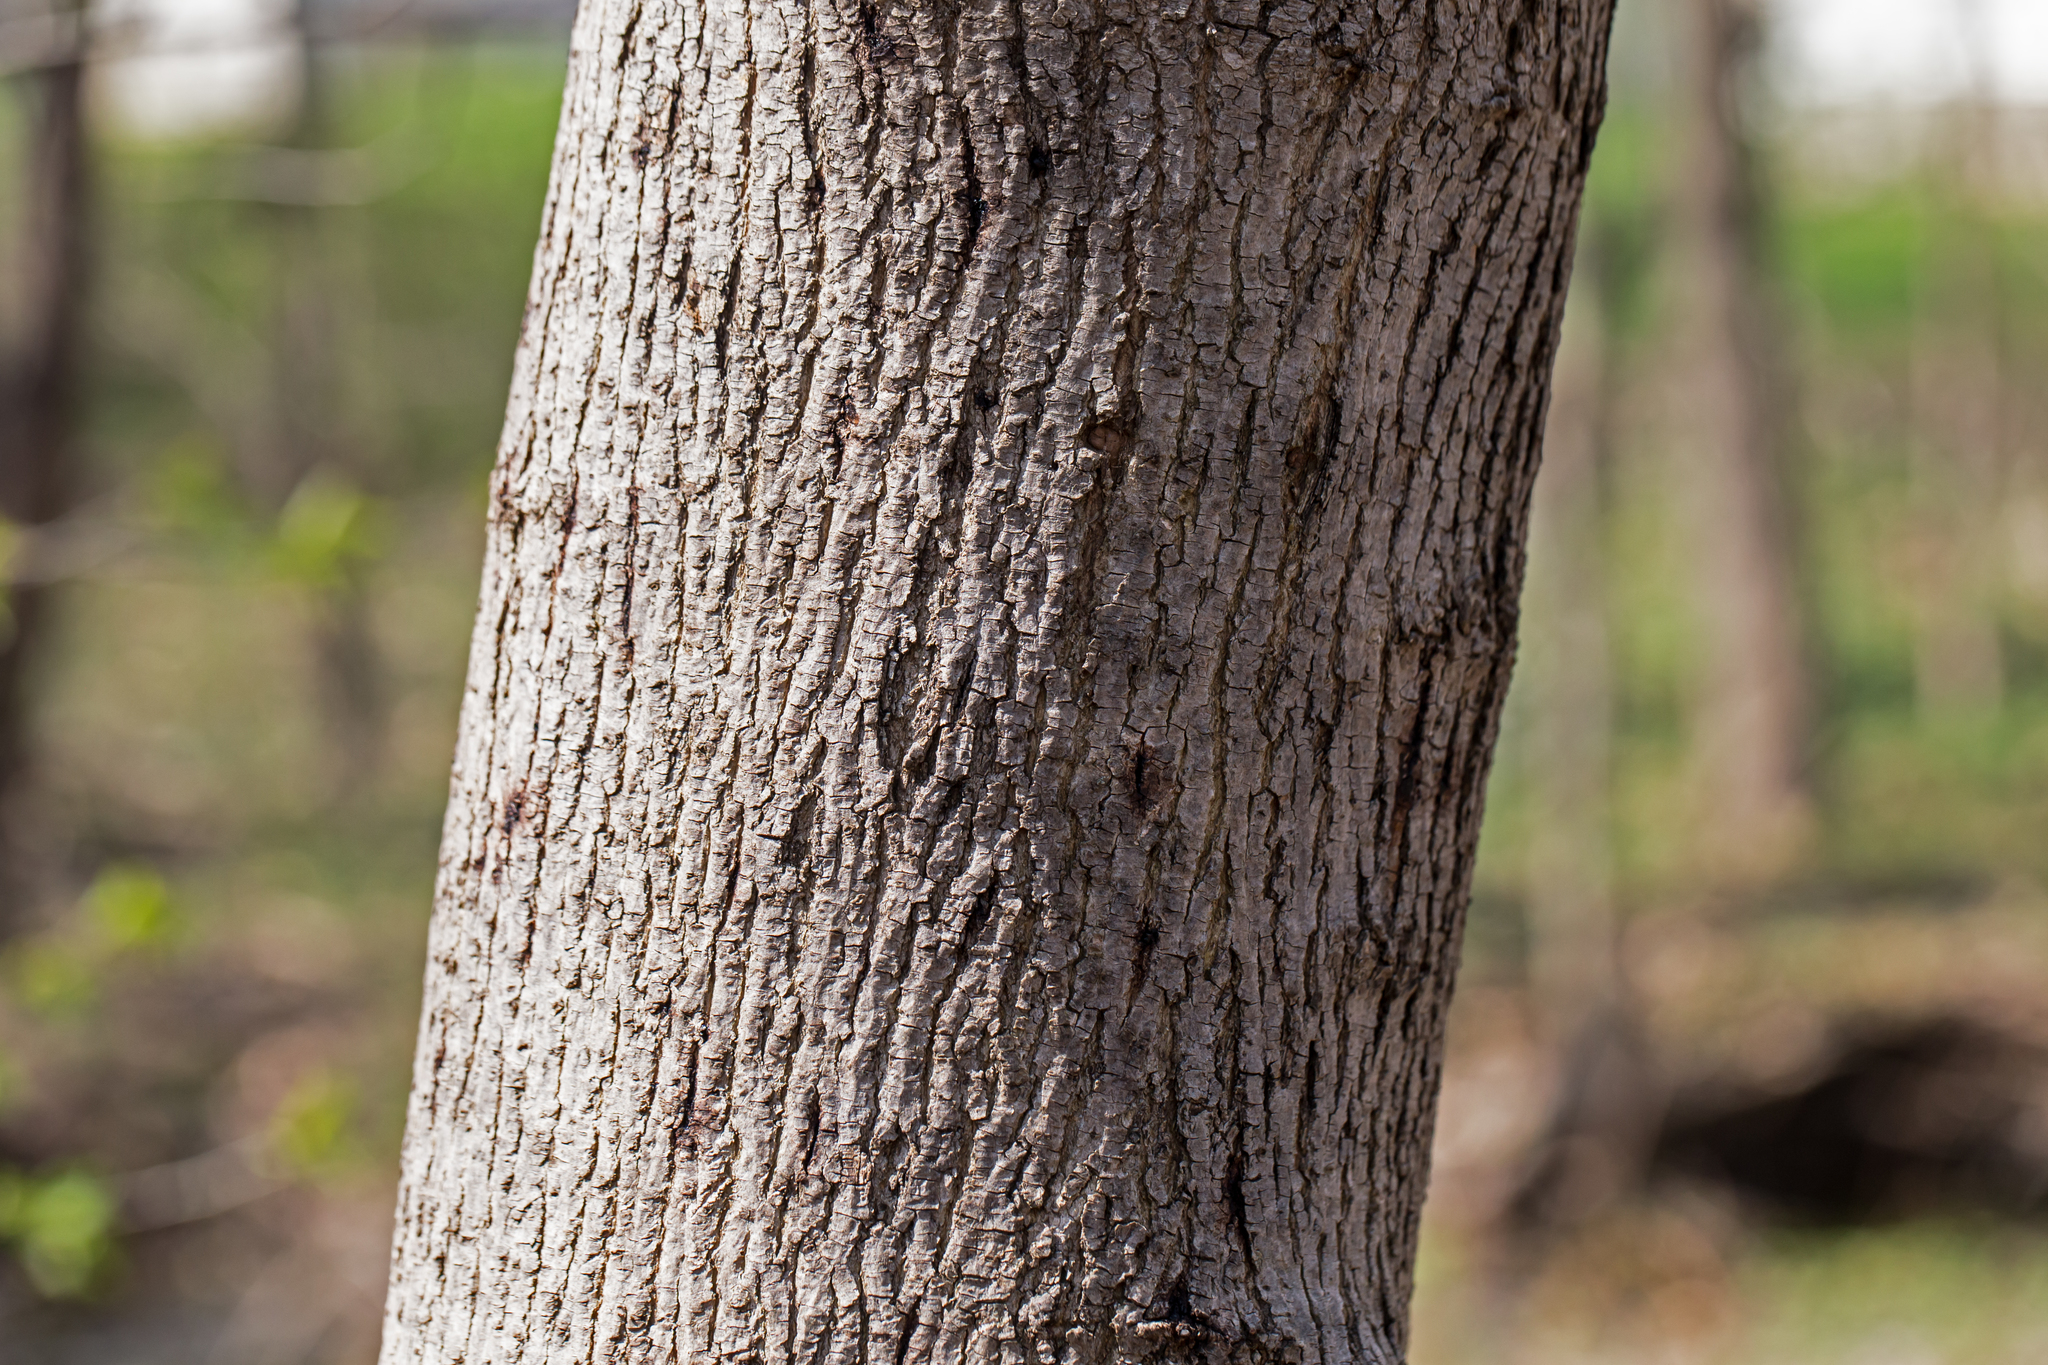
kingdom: Plantae
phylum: Tracheophyta
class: Magnoliopsida
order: Sapindales
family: Sapindaceae
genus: Acer
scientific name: Acer platanoides
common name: Norway maple
